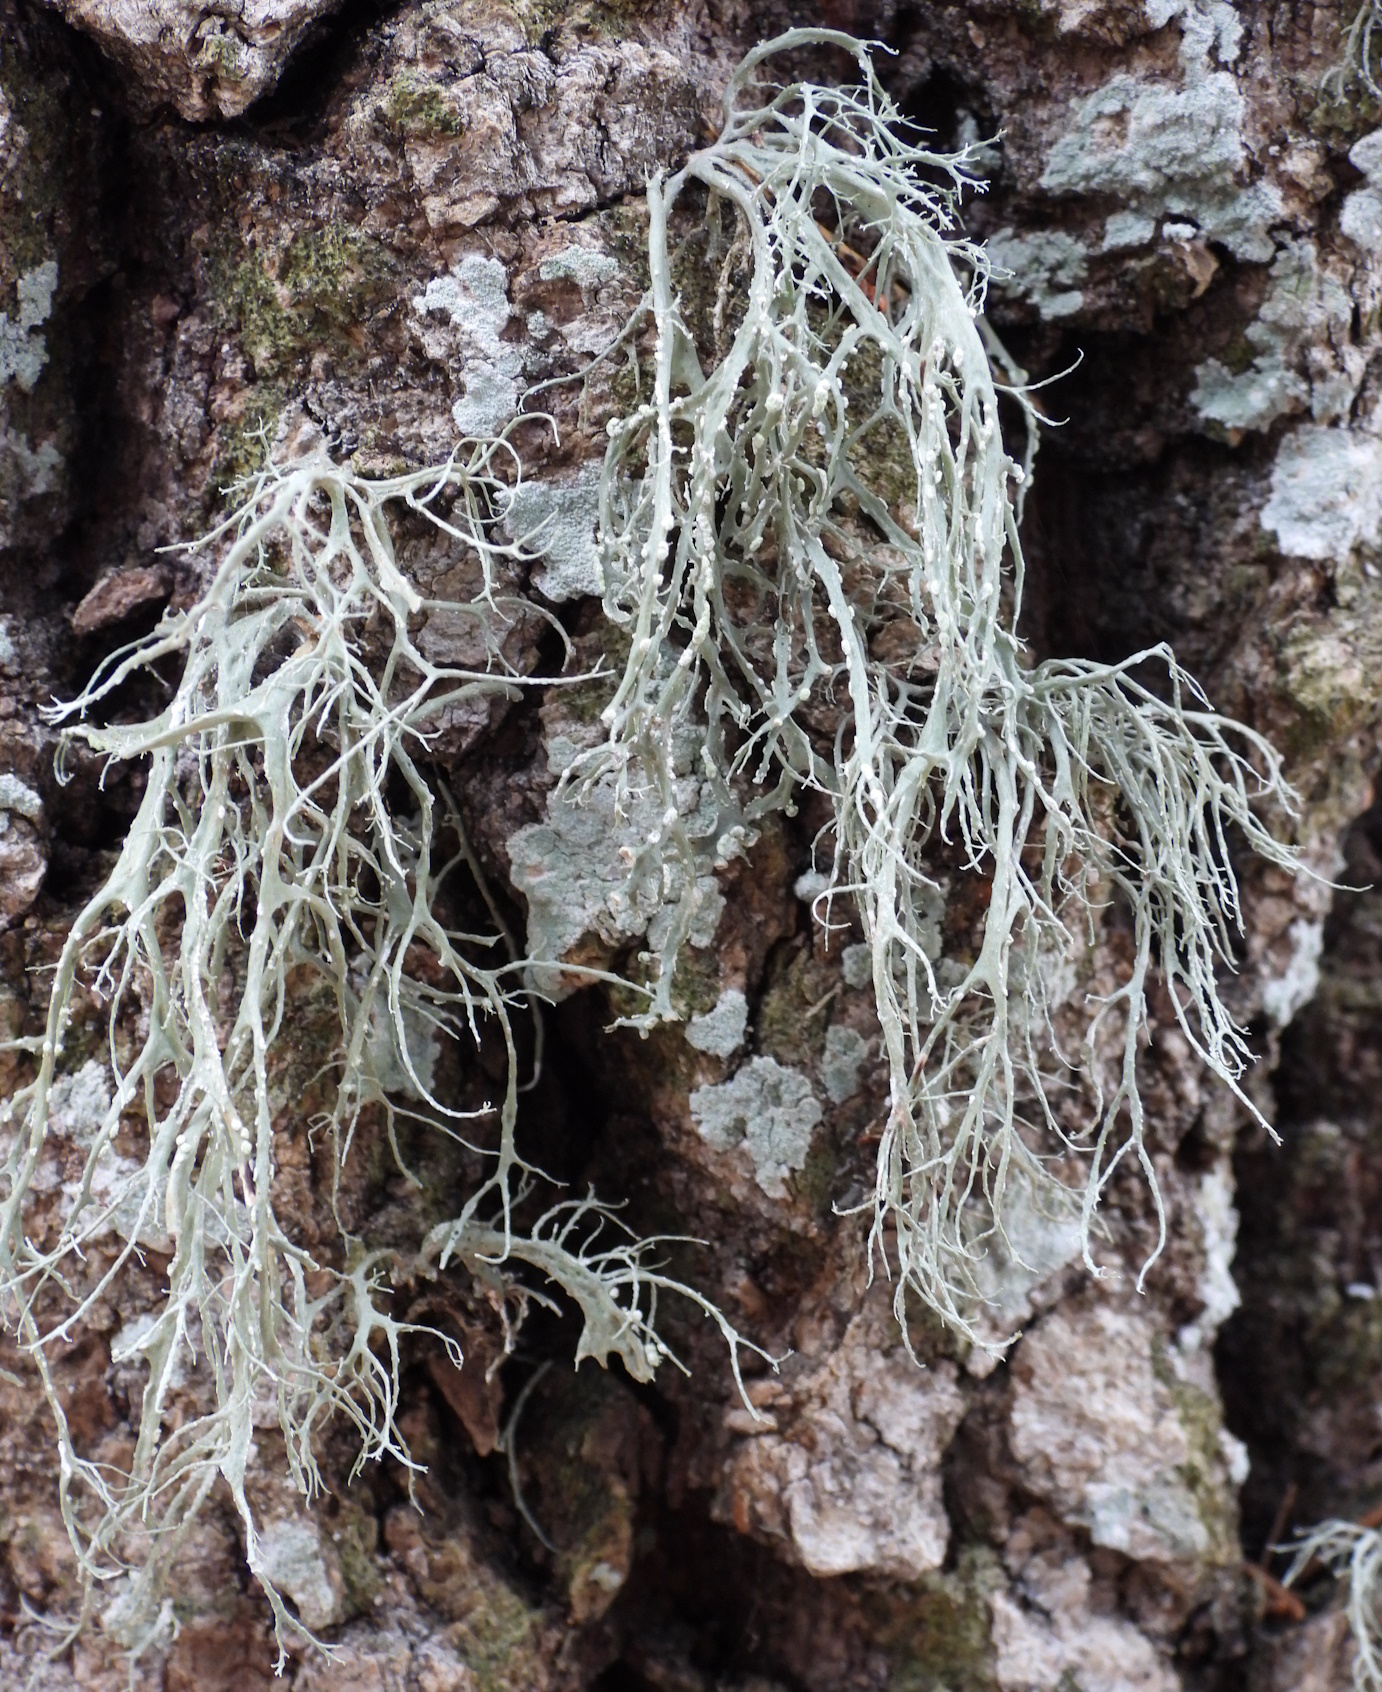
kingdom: Fungi
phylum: Ascomycota
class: Lecanoromycetes
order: Lecanorales
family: Ramalinaceae
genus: Ramalina
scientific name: Ramalina farinacea
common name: Farinose cartilage lichen
